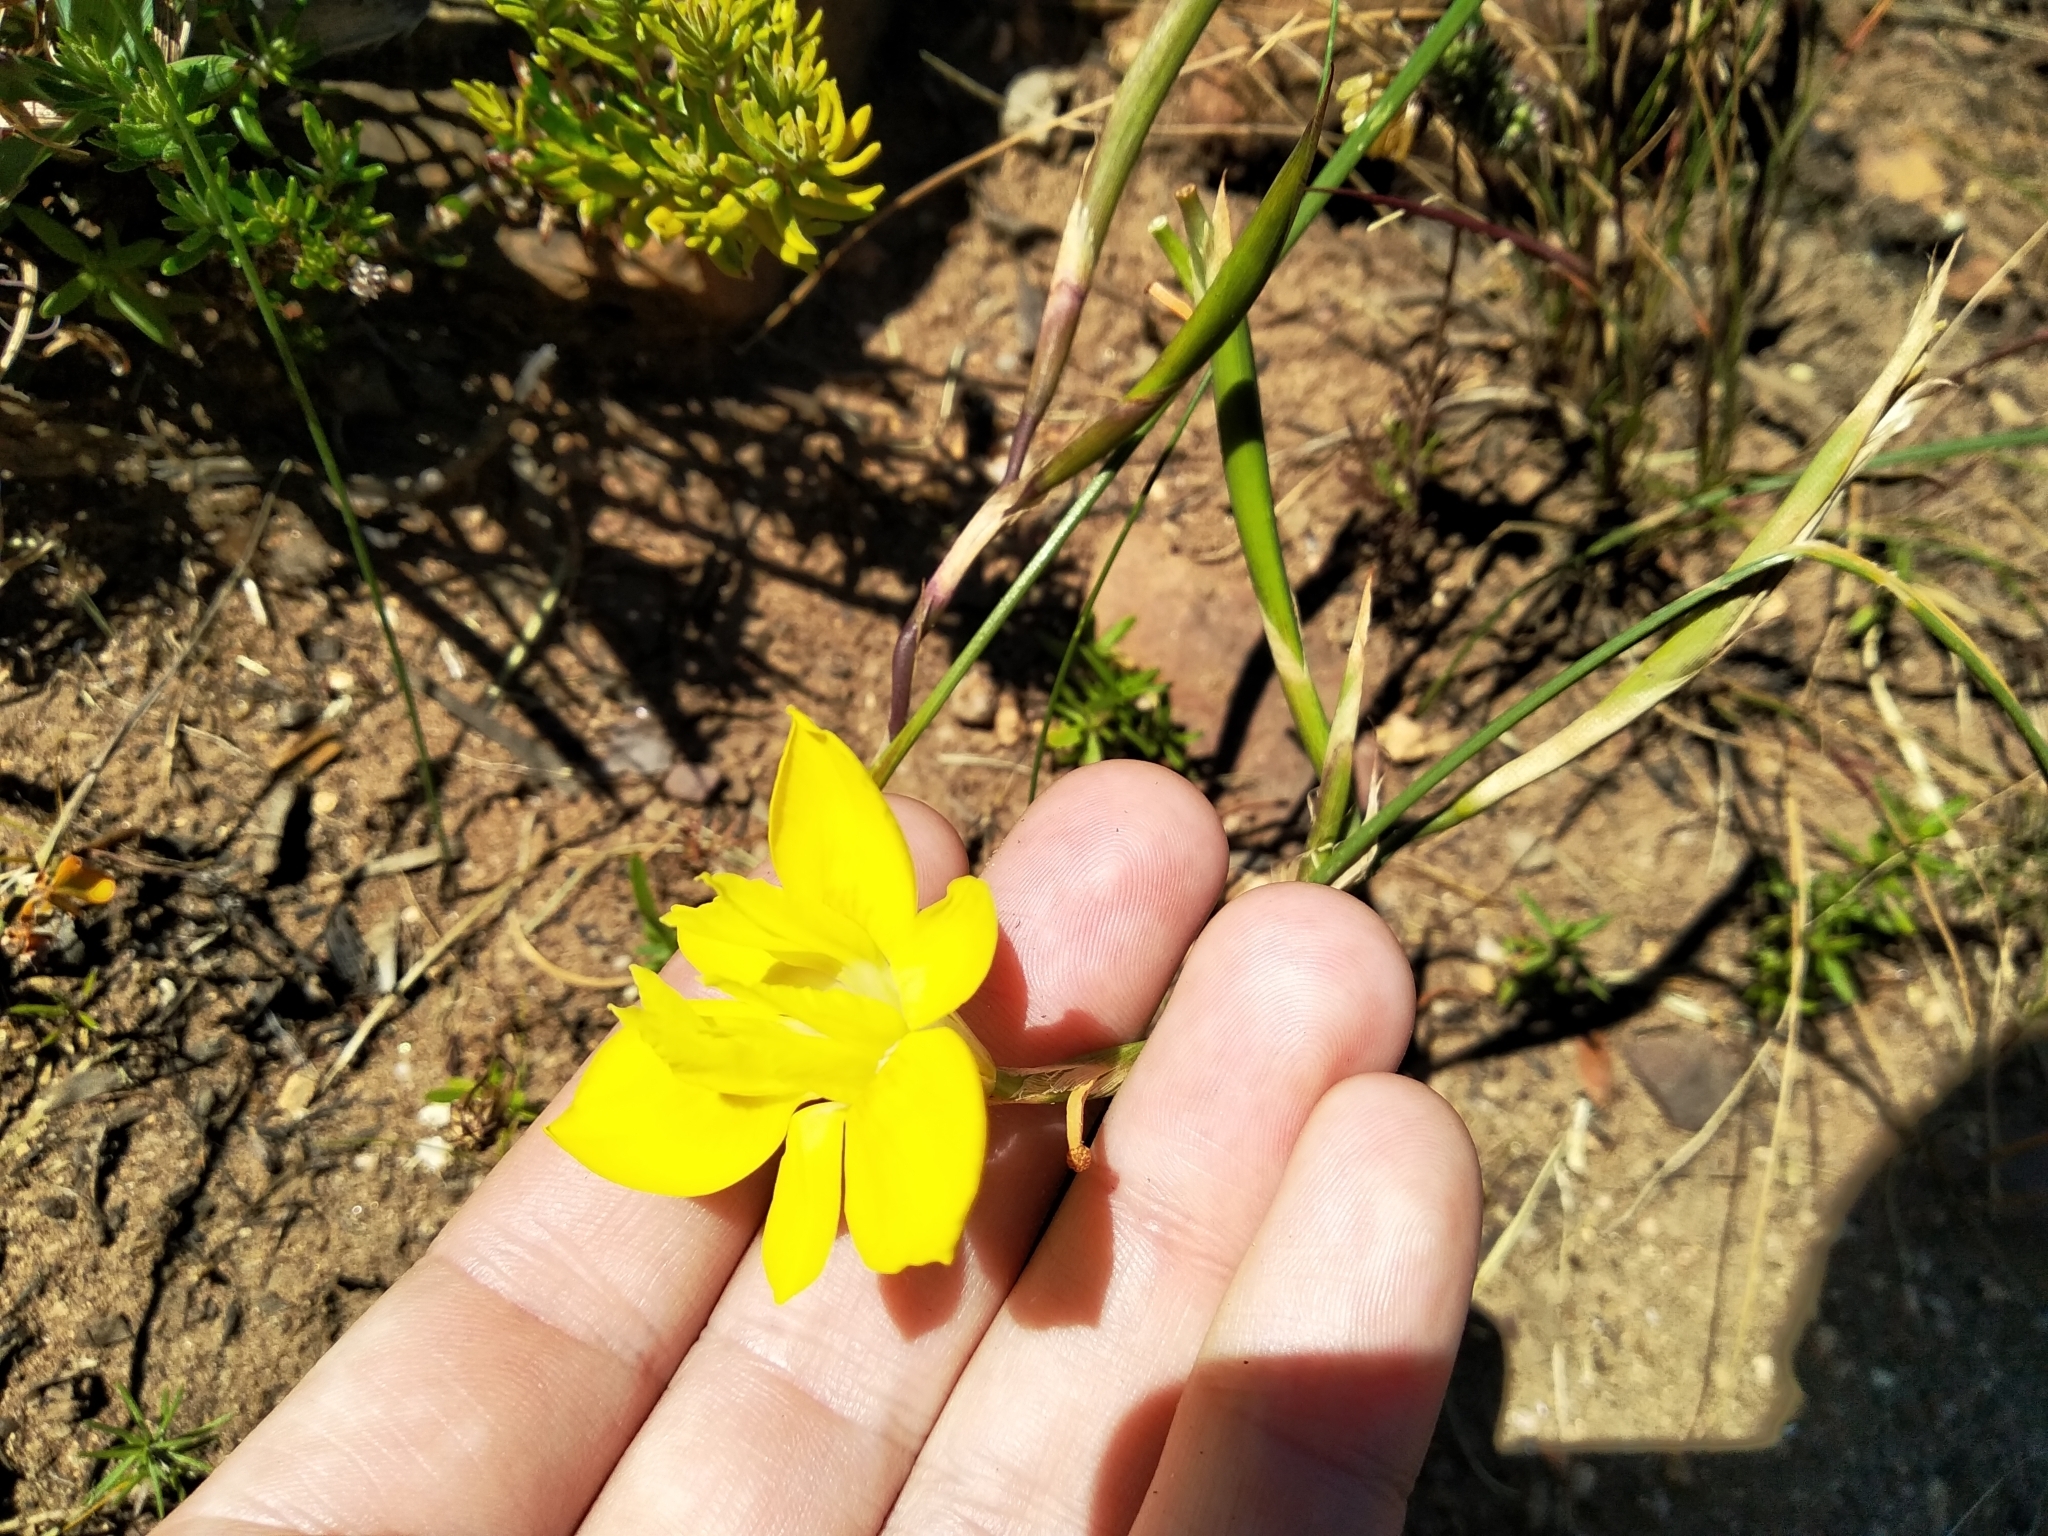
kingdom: Plantae
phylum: Tracheophyta
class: Liliopsida
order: Asparagales
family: Iridaceae
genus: Moraea
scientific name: Moraea fugax
